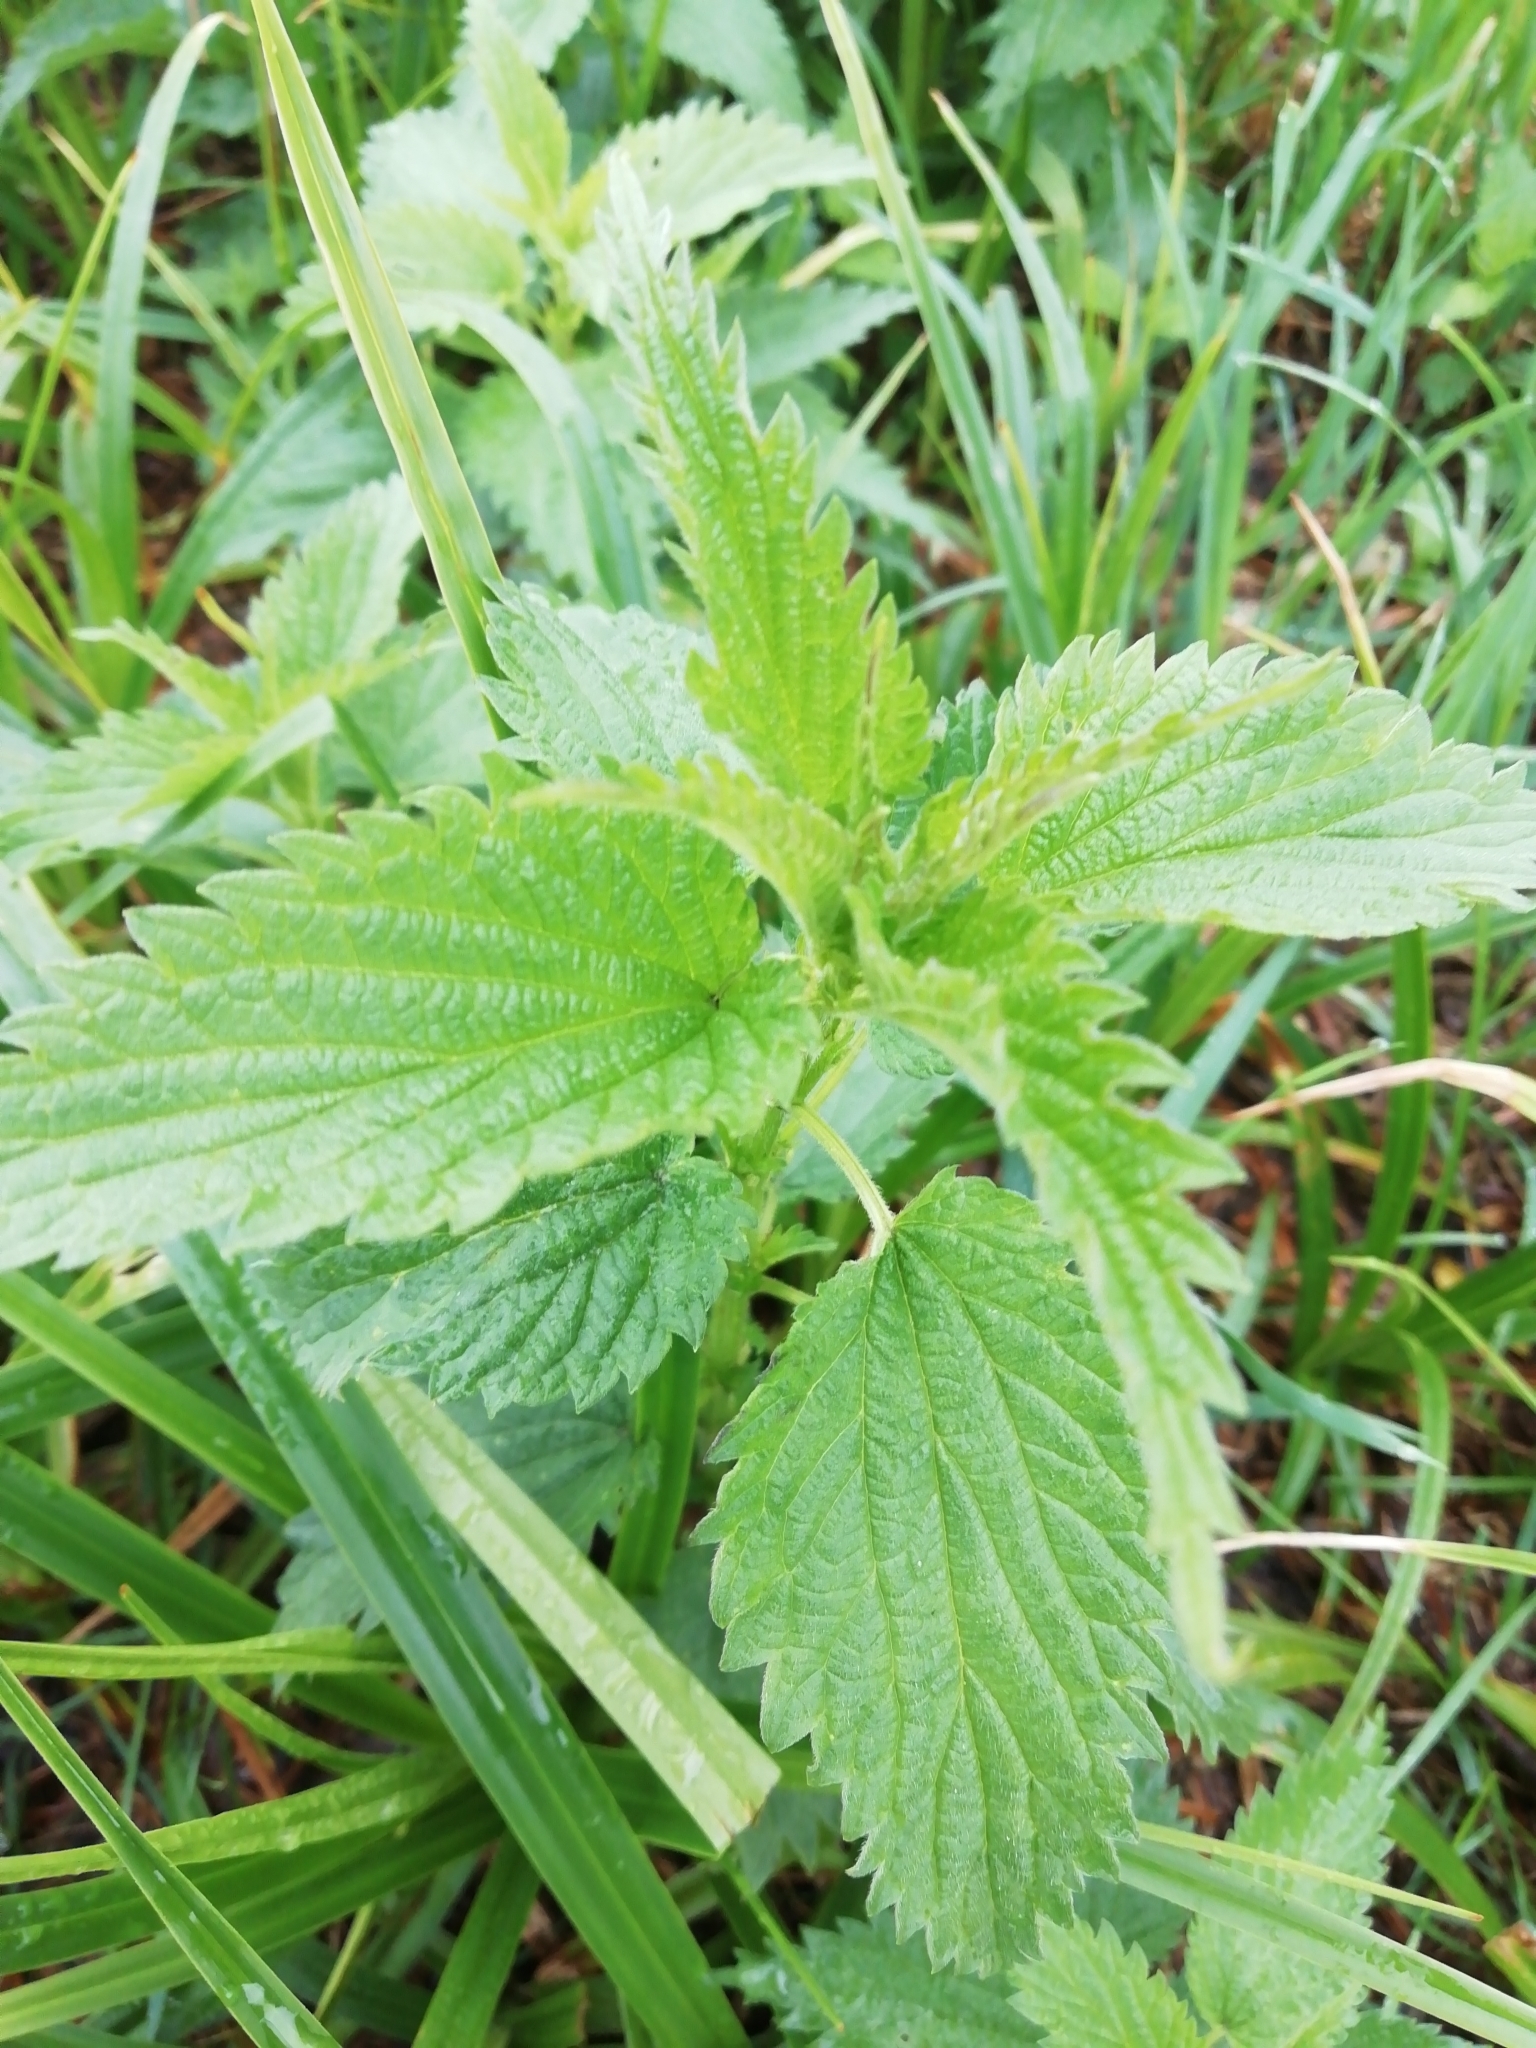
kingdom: Plantae
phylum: Tracheophyta
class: Magnoliopsida
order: Rosales
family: Urticaceae
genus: Urtica
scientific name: Urtica dioica
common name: Common nettle
